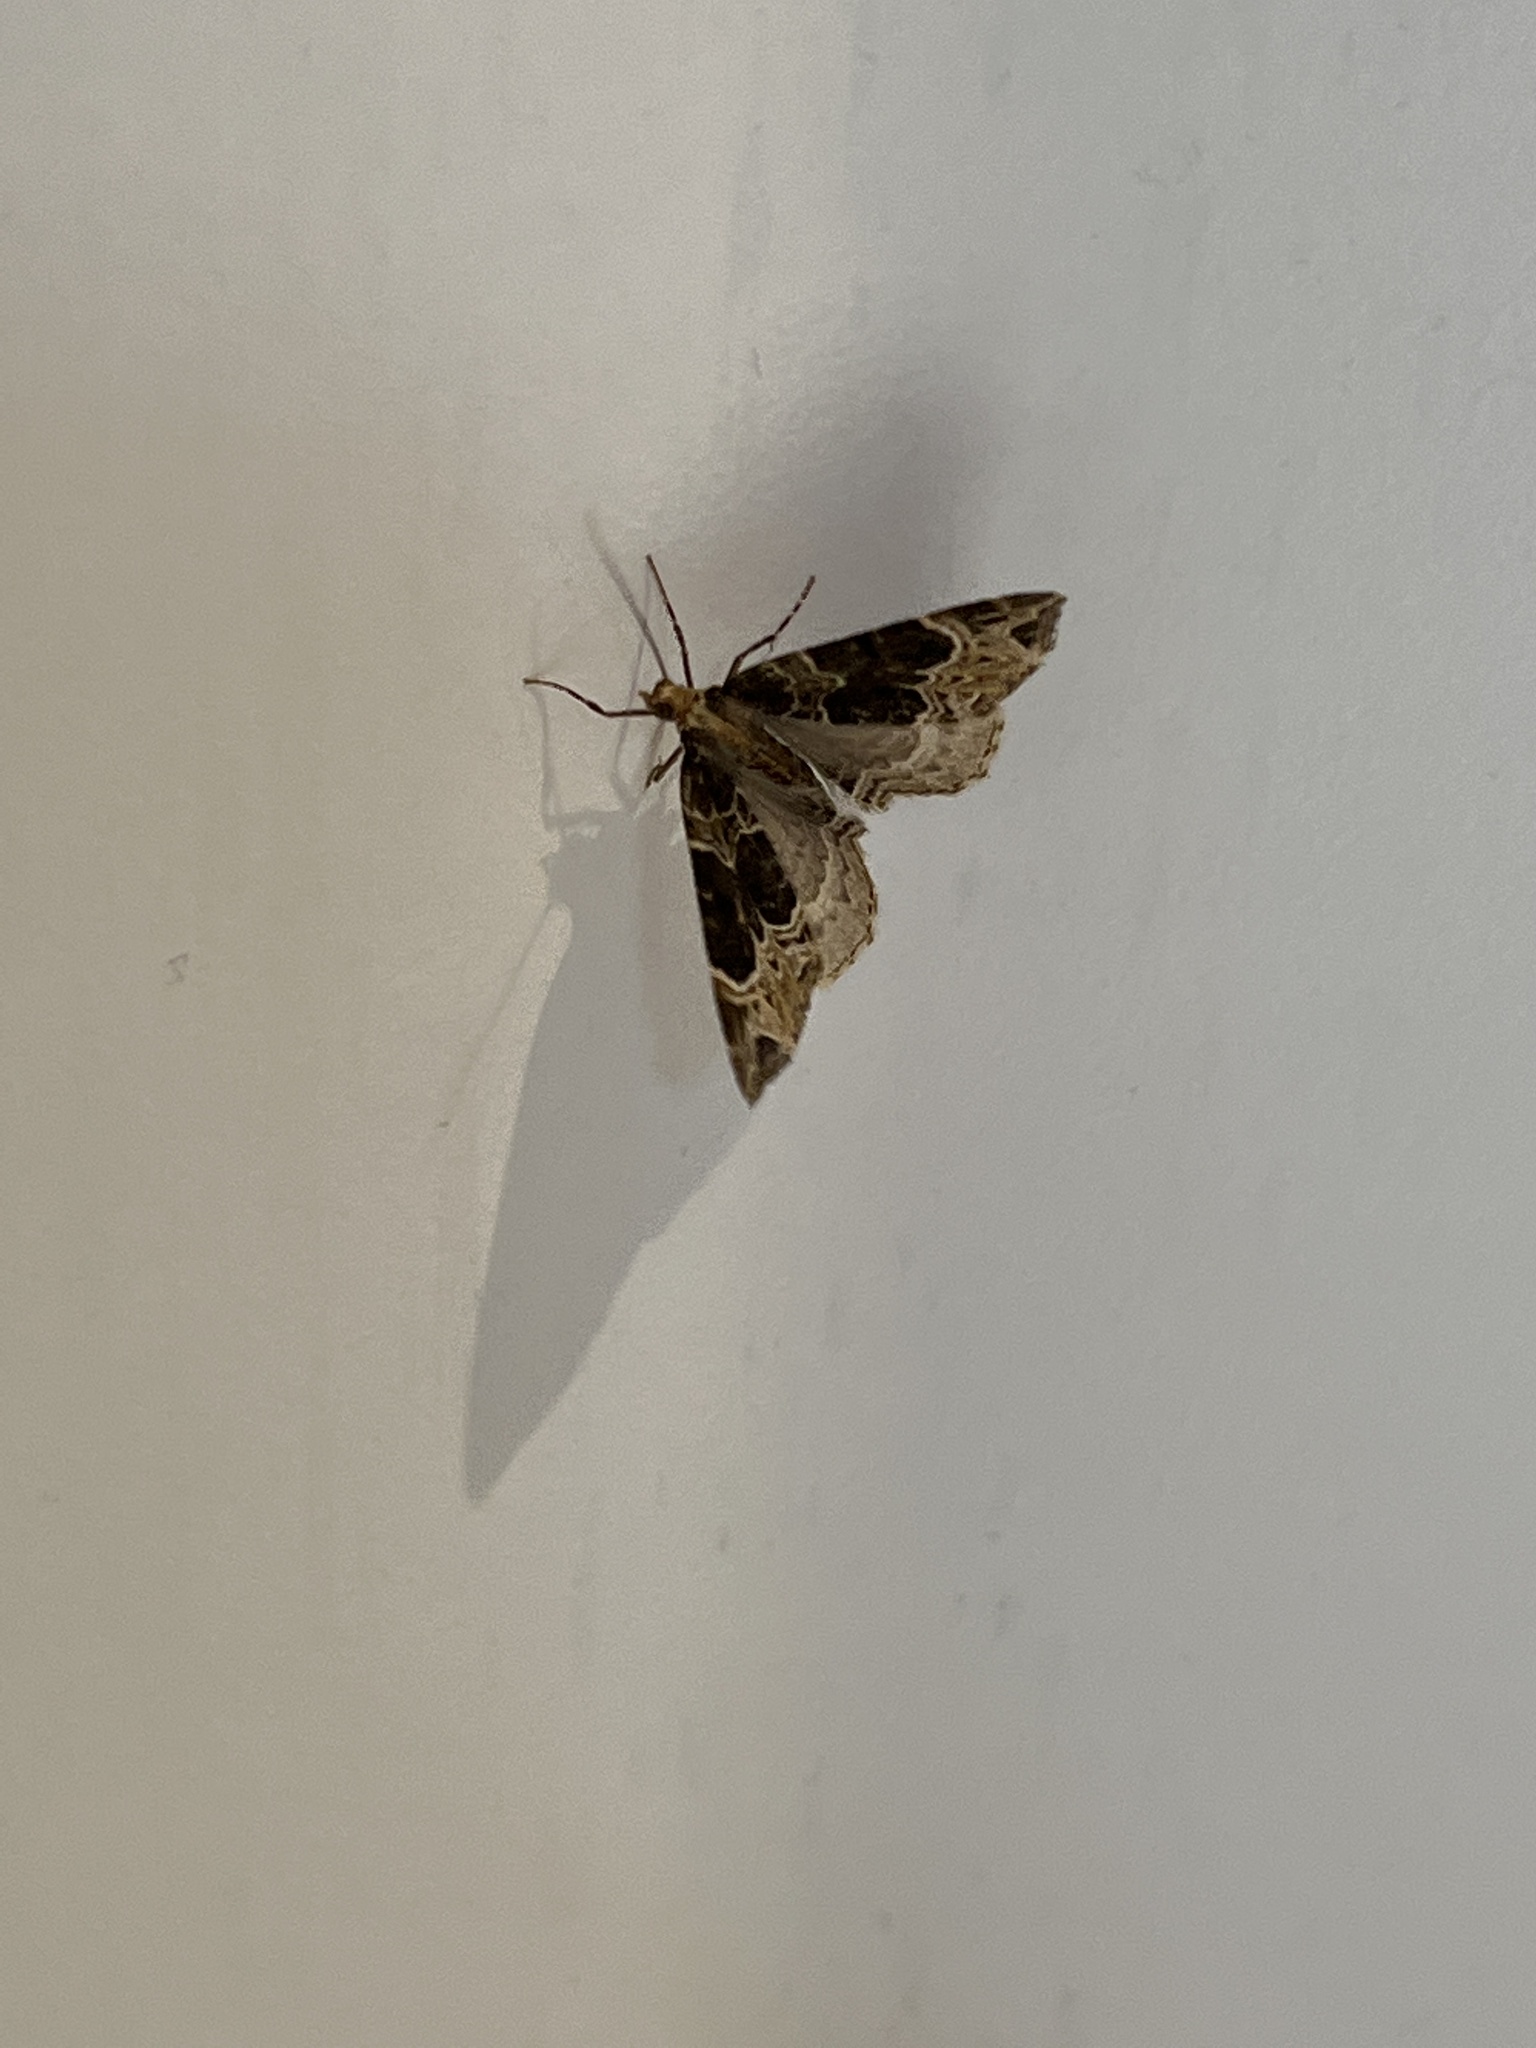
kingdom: Animalia
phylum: Arthropoda
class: Insecta
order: Lepidoptera
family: Geometridae
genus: Ecliptopera
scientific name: Ecliptopera silaceata
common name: Small phoenix
